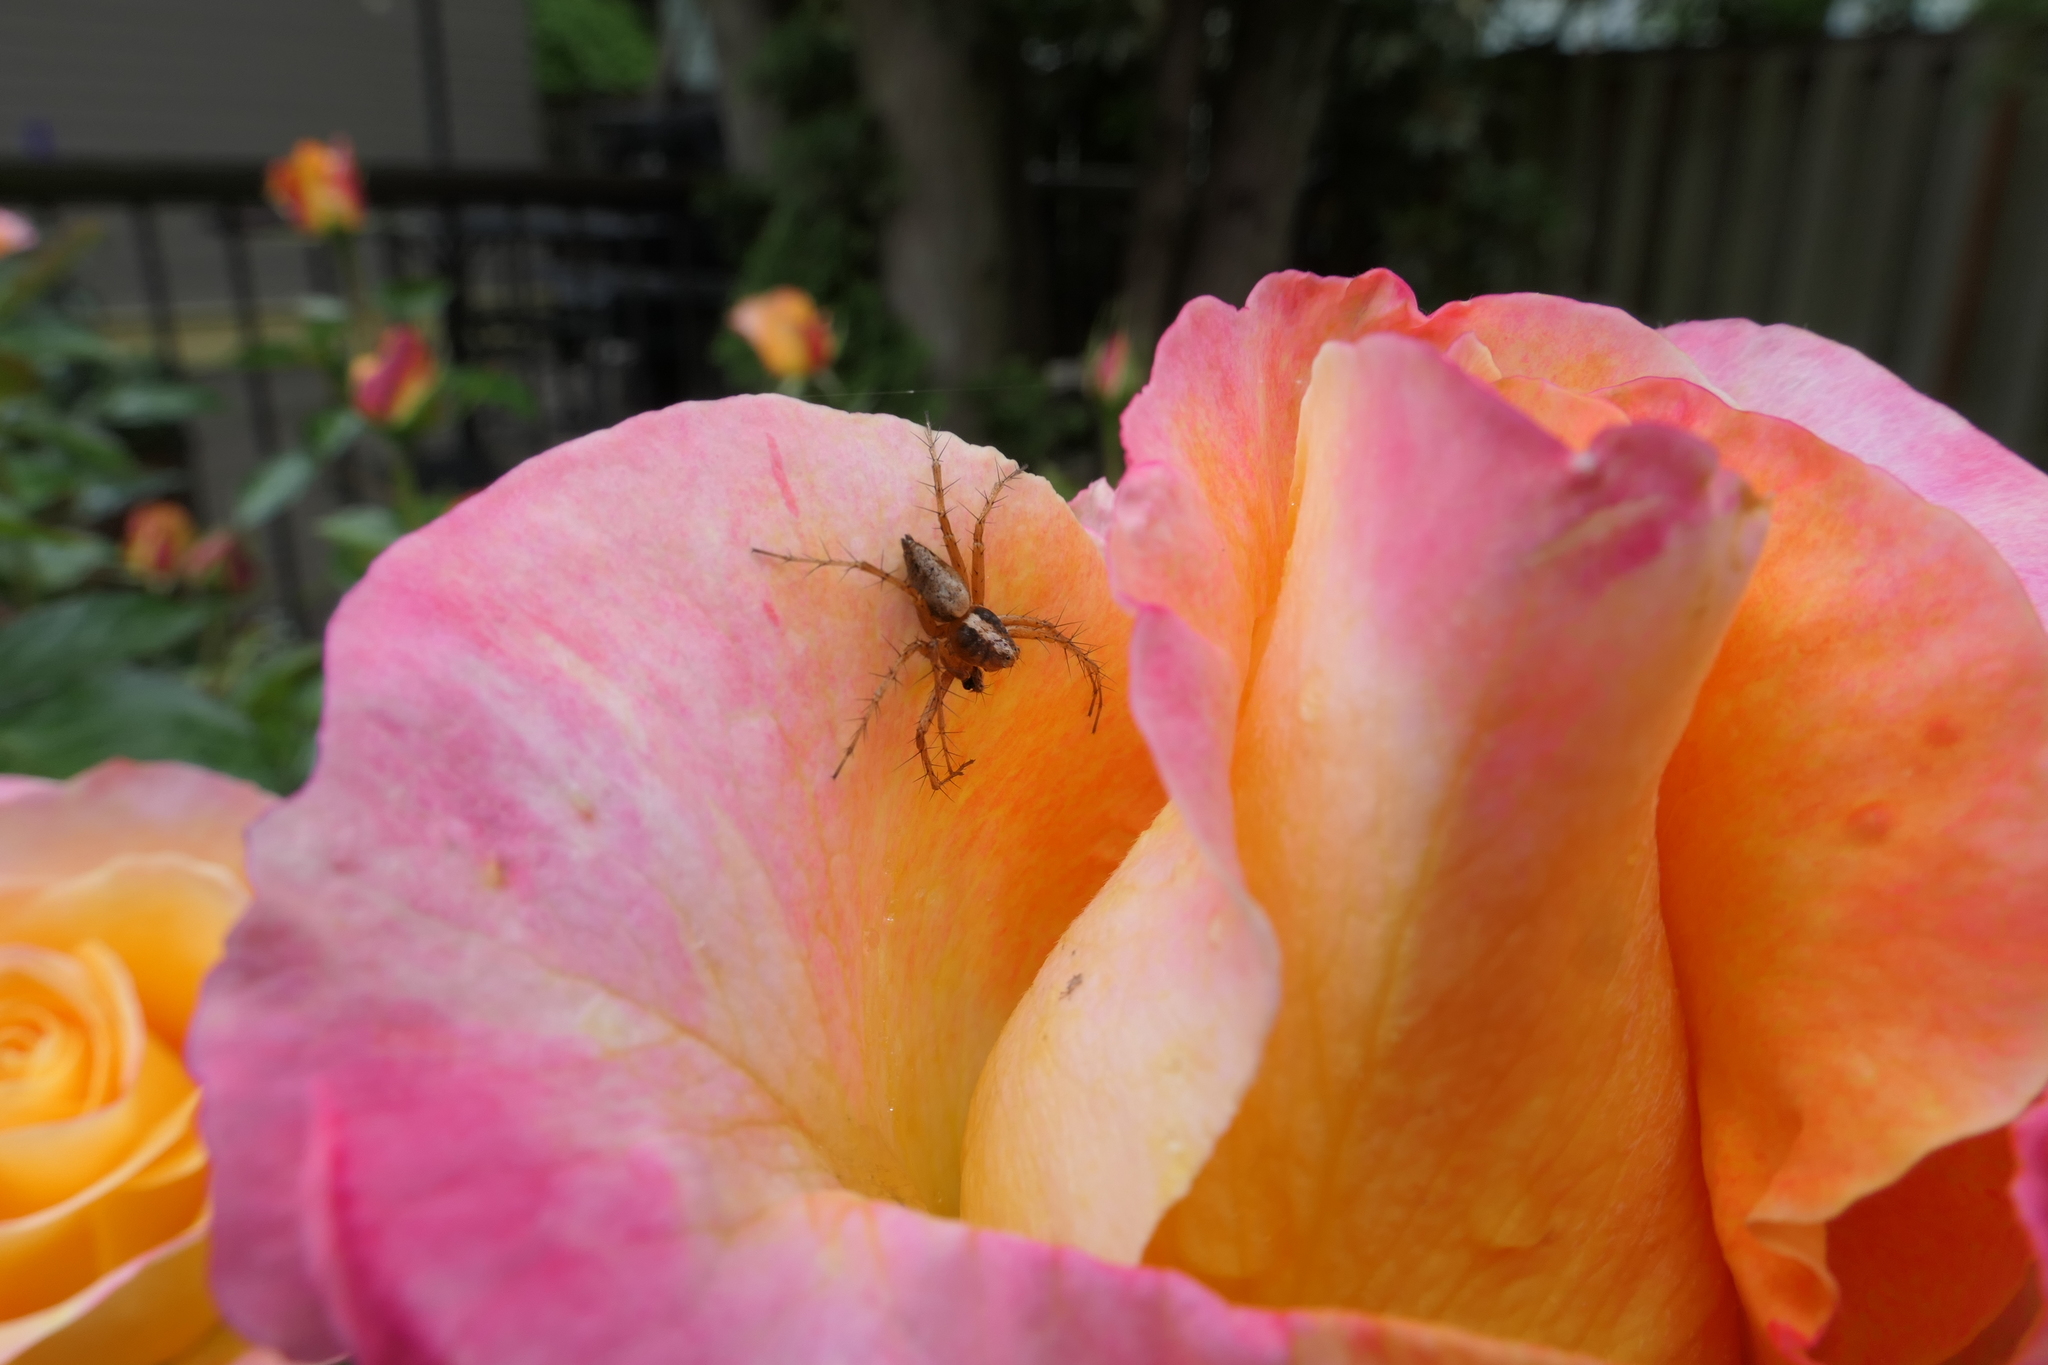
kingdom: Animalia
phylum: Arthropoda
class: Arachnida
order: Araneae
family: Oxyopidae
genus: Oxyopes
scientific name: Oxyopes scalaris
